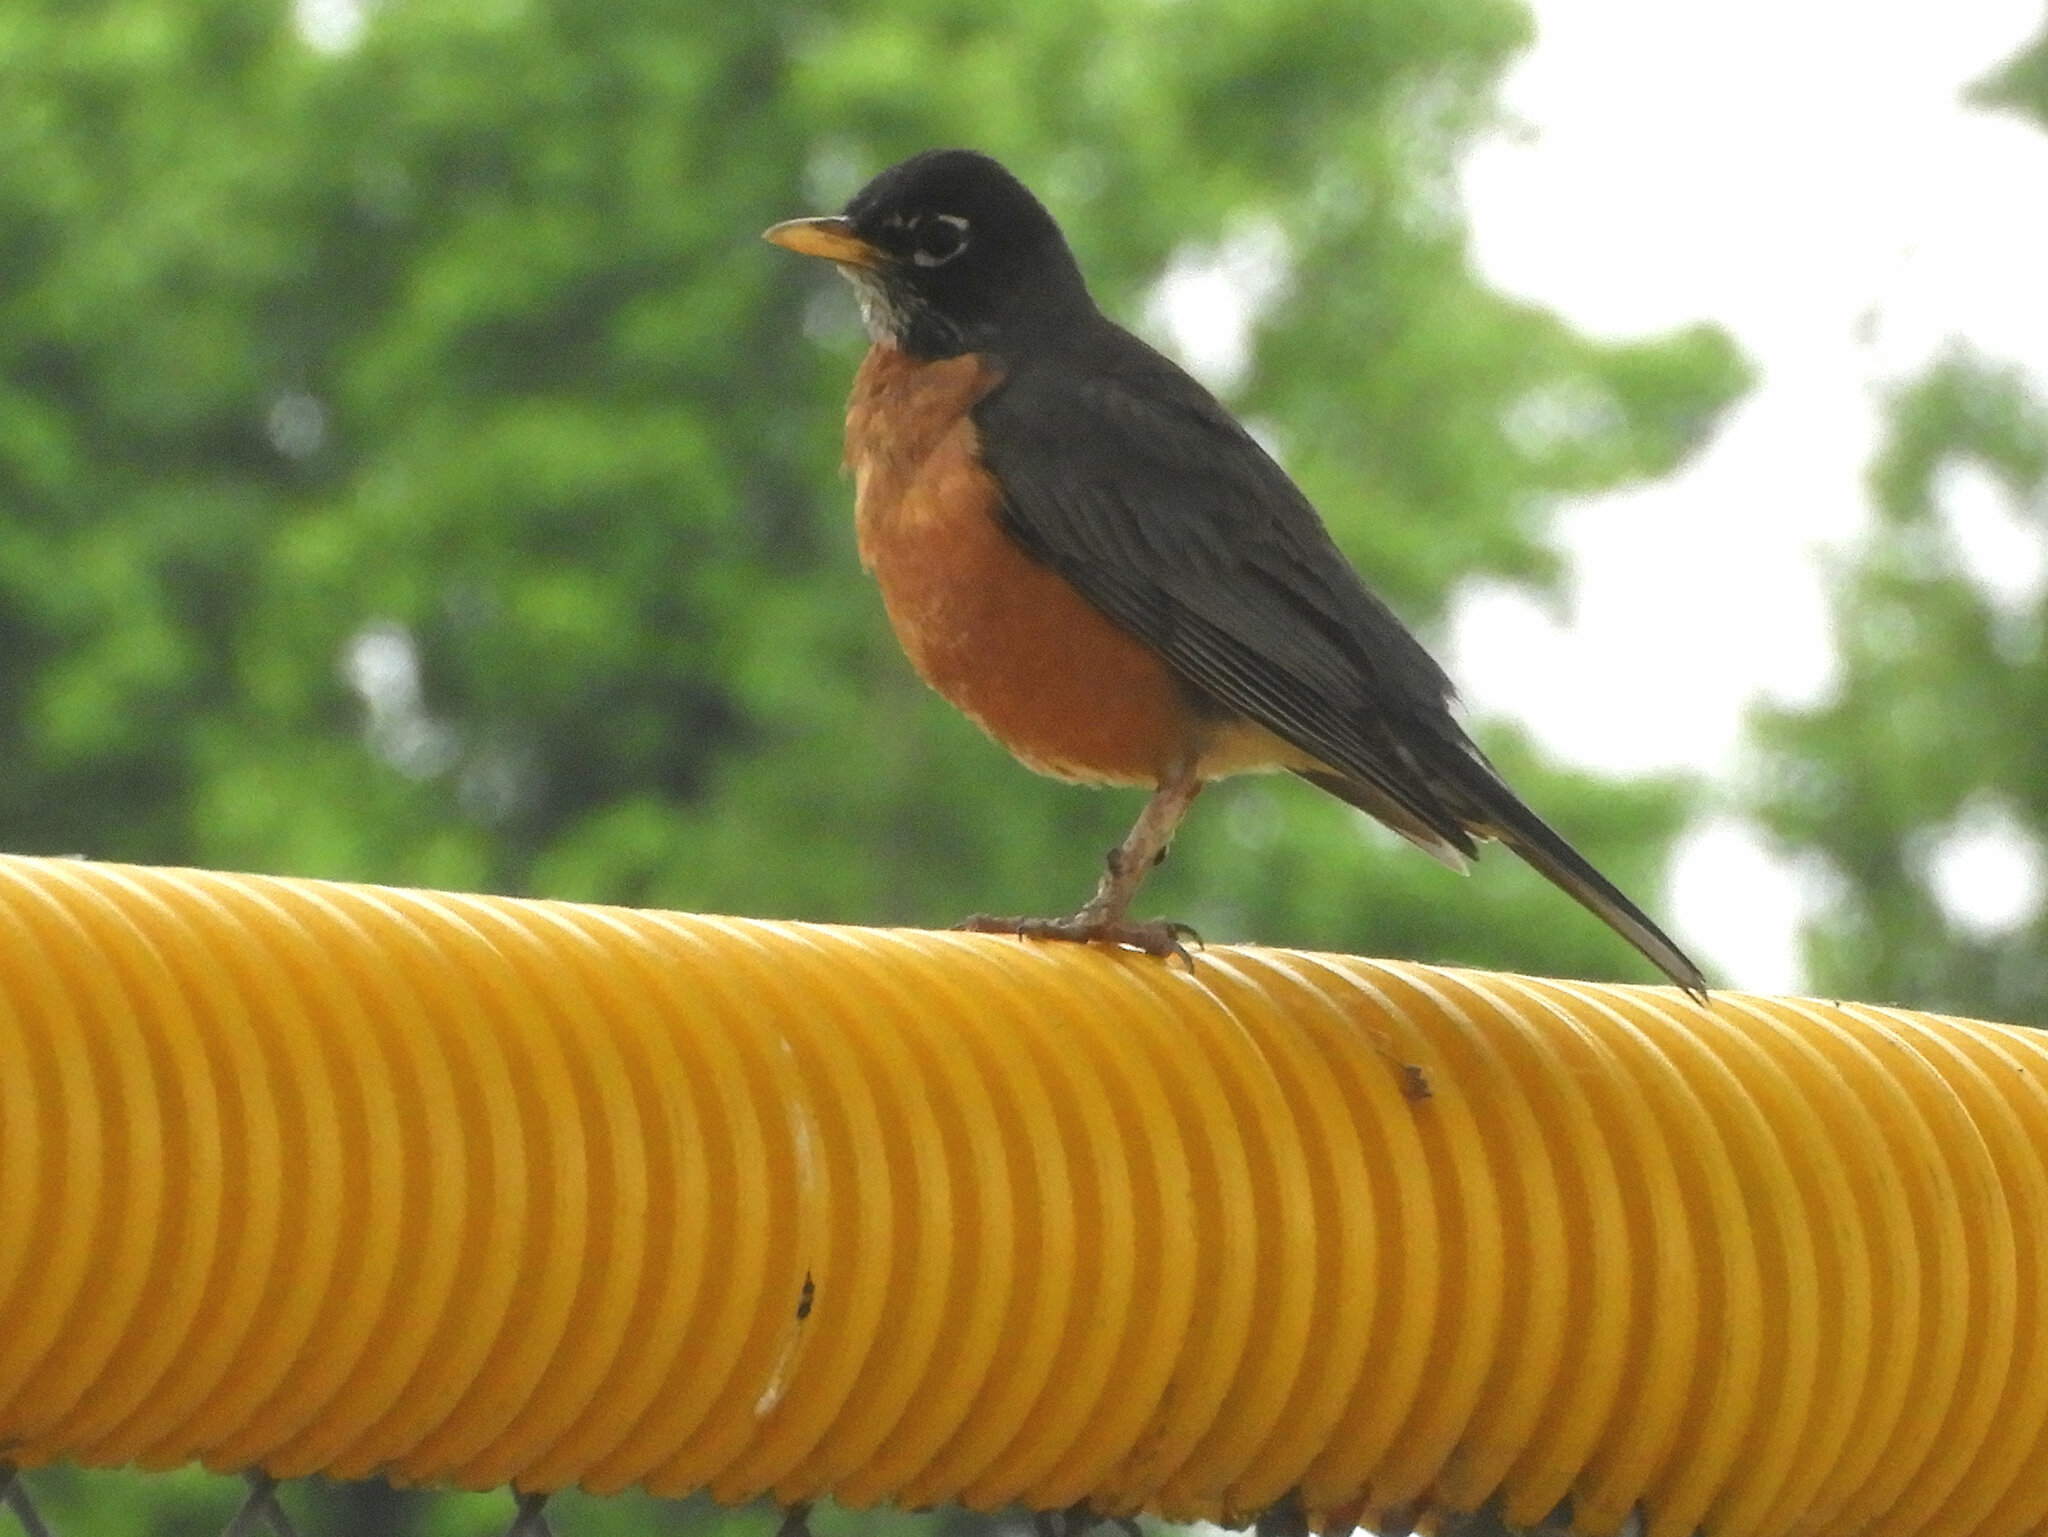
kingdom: Animalia
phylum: Chordata
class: Aves
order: Passeriformes
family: Turdidae
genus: Turdus
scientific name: Turdus migratorius
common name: American robin
